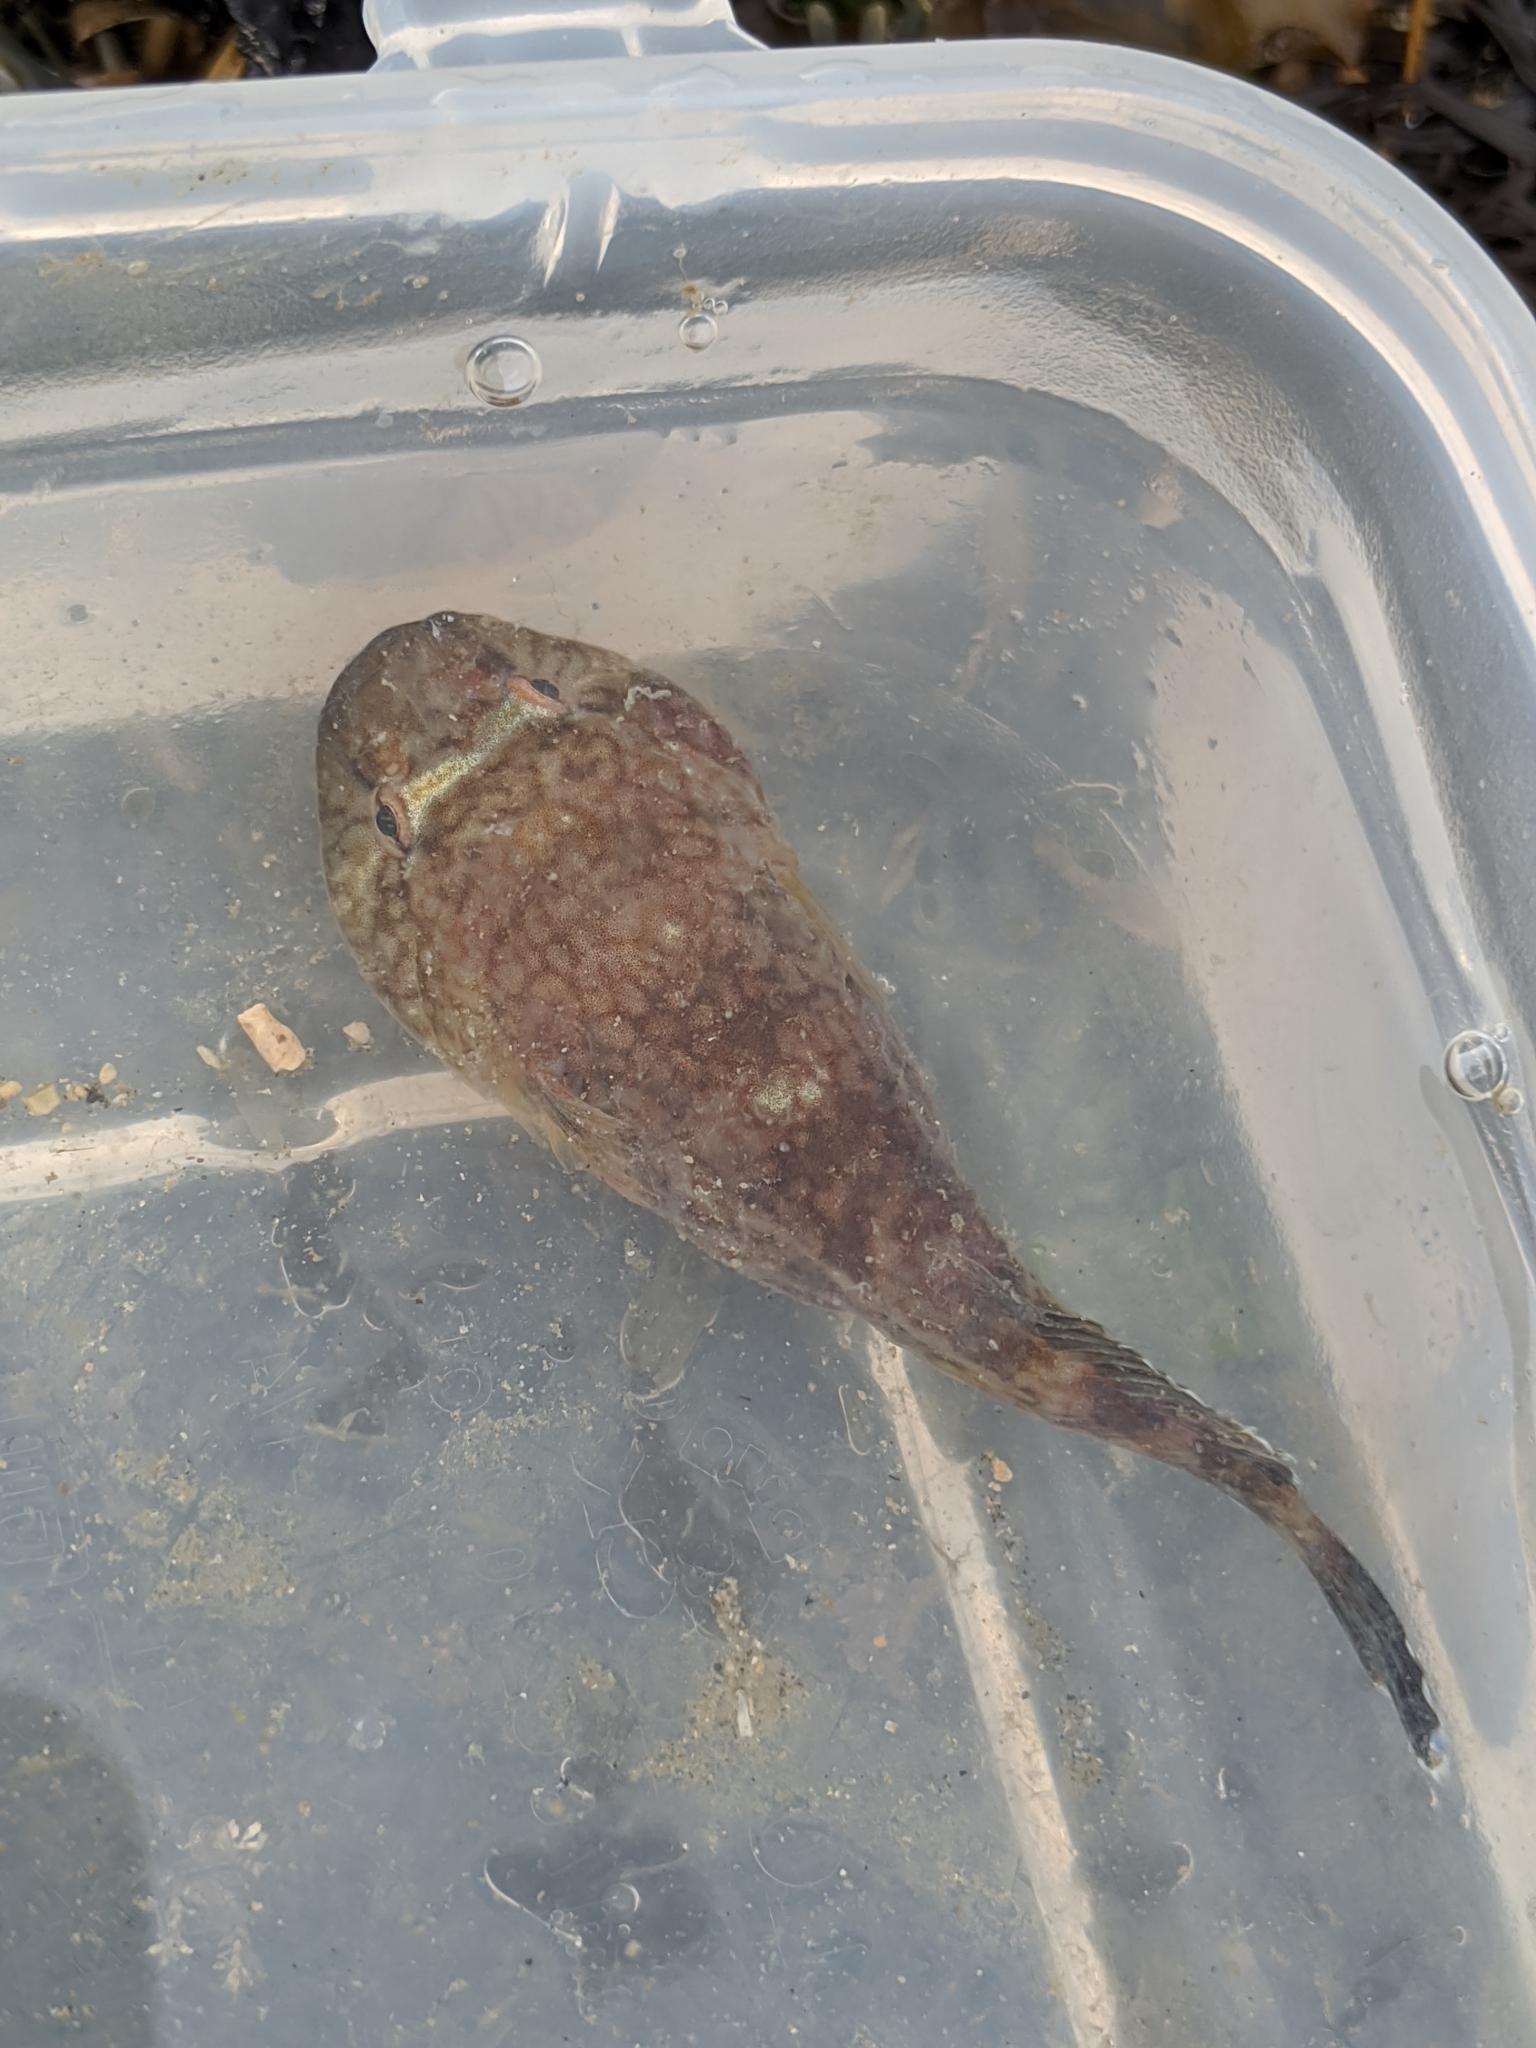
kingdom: Animalia
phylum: Chordata
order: Gobiesociformes
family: Gobiesocidae
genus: Gobiesox
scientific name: Gobiesox maeandricus
